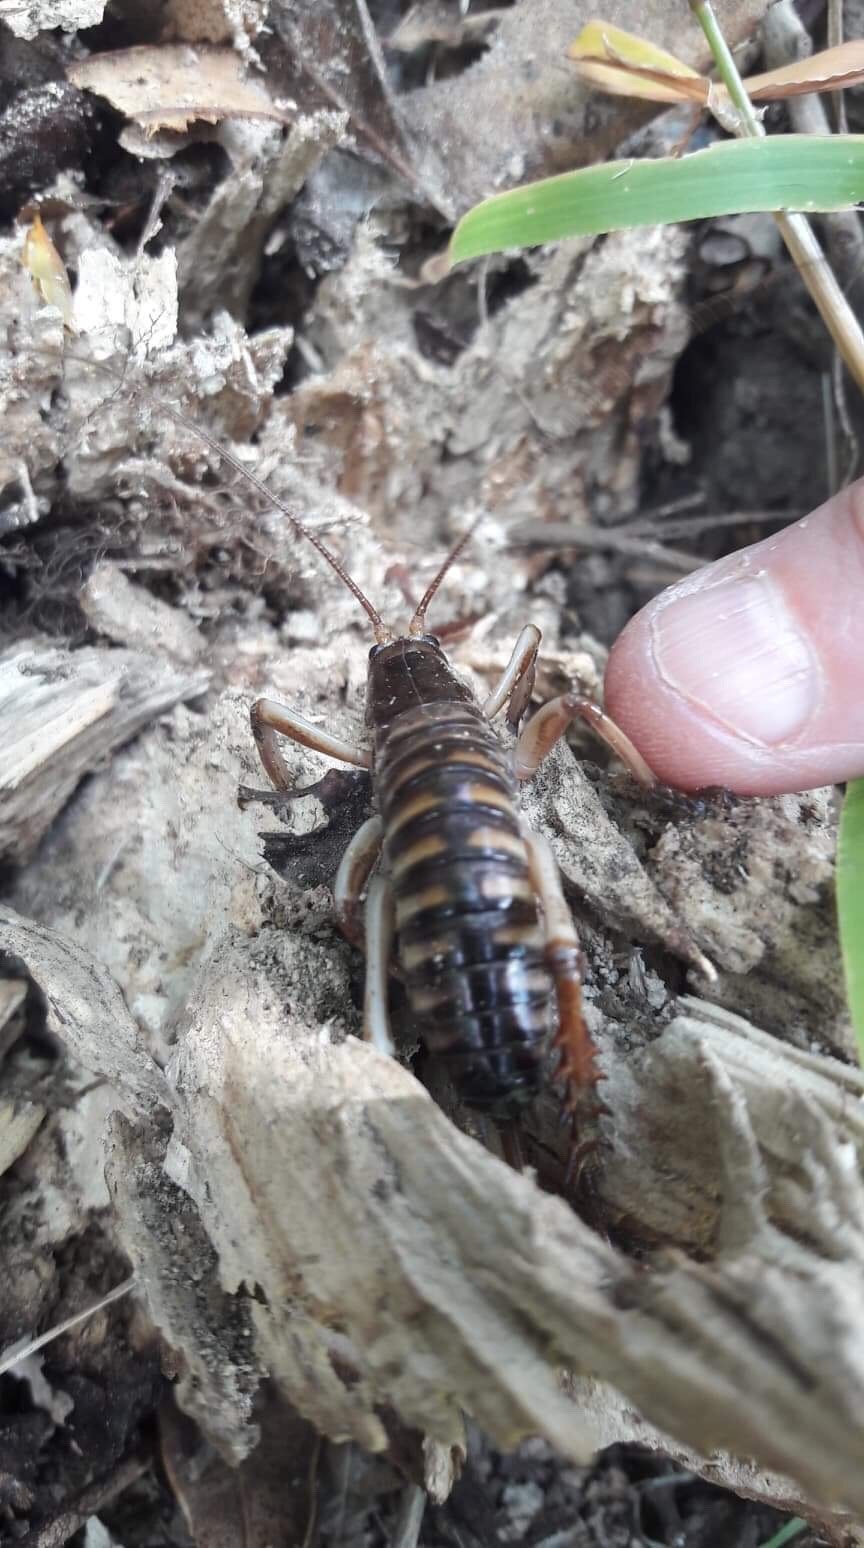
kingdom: Animalia
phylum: Arthropoda
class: Insecta
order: Orthoptera
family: Anostostomatidae
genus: Hemideina
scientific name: Hemideina crassidens
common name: Wellington tree weta
